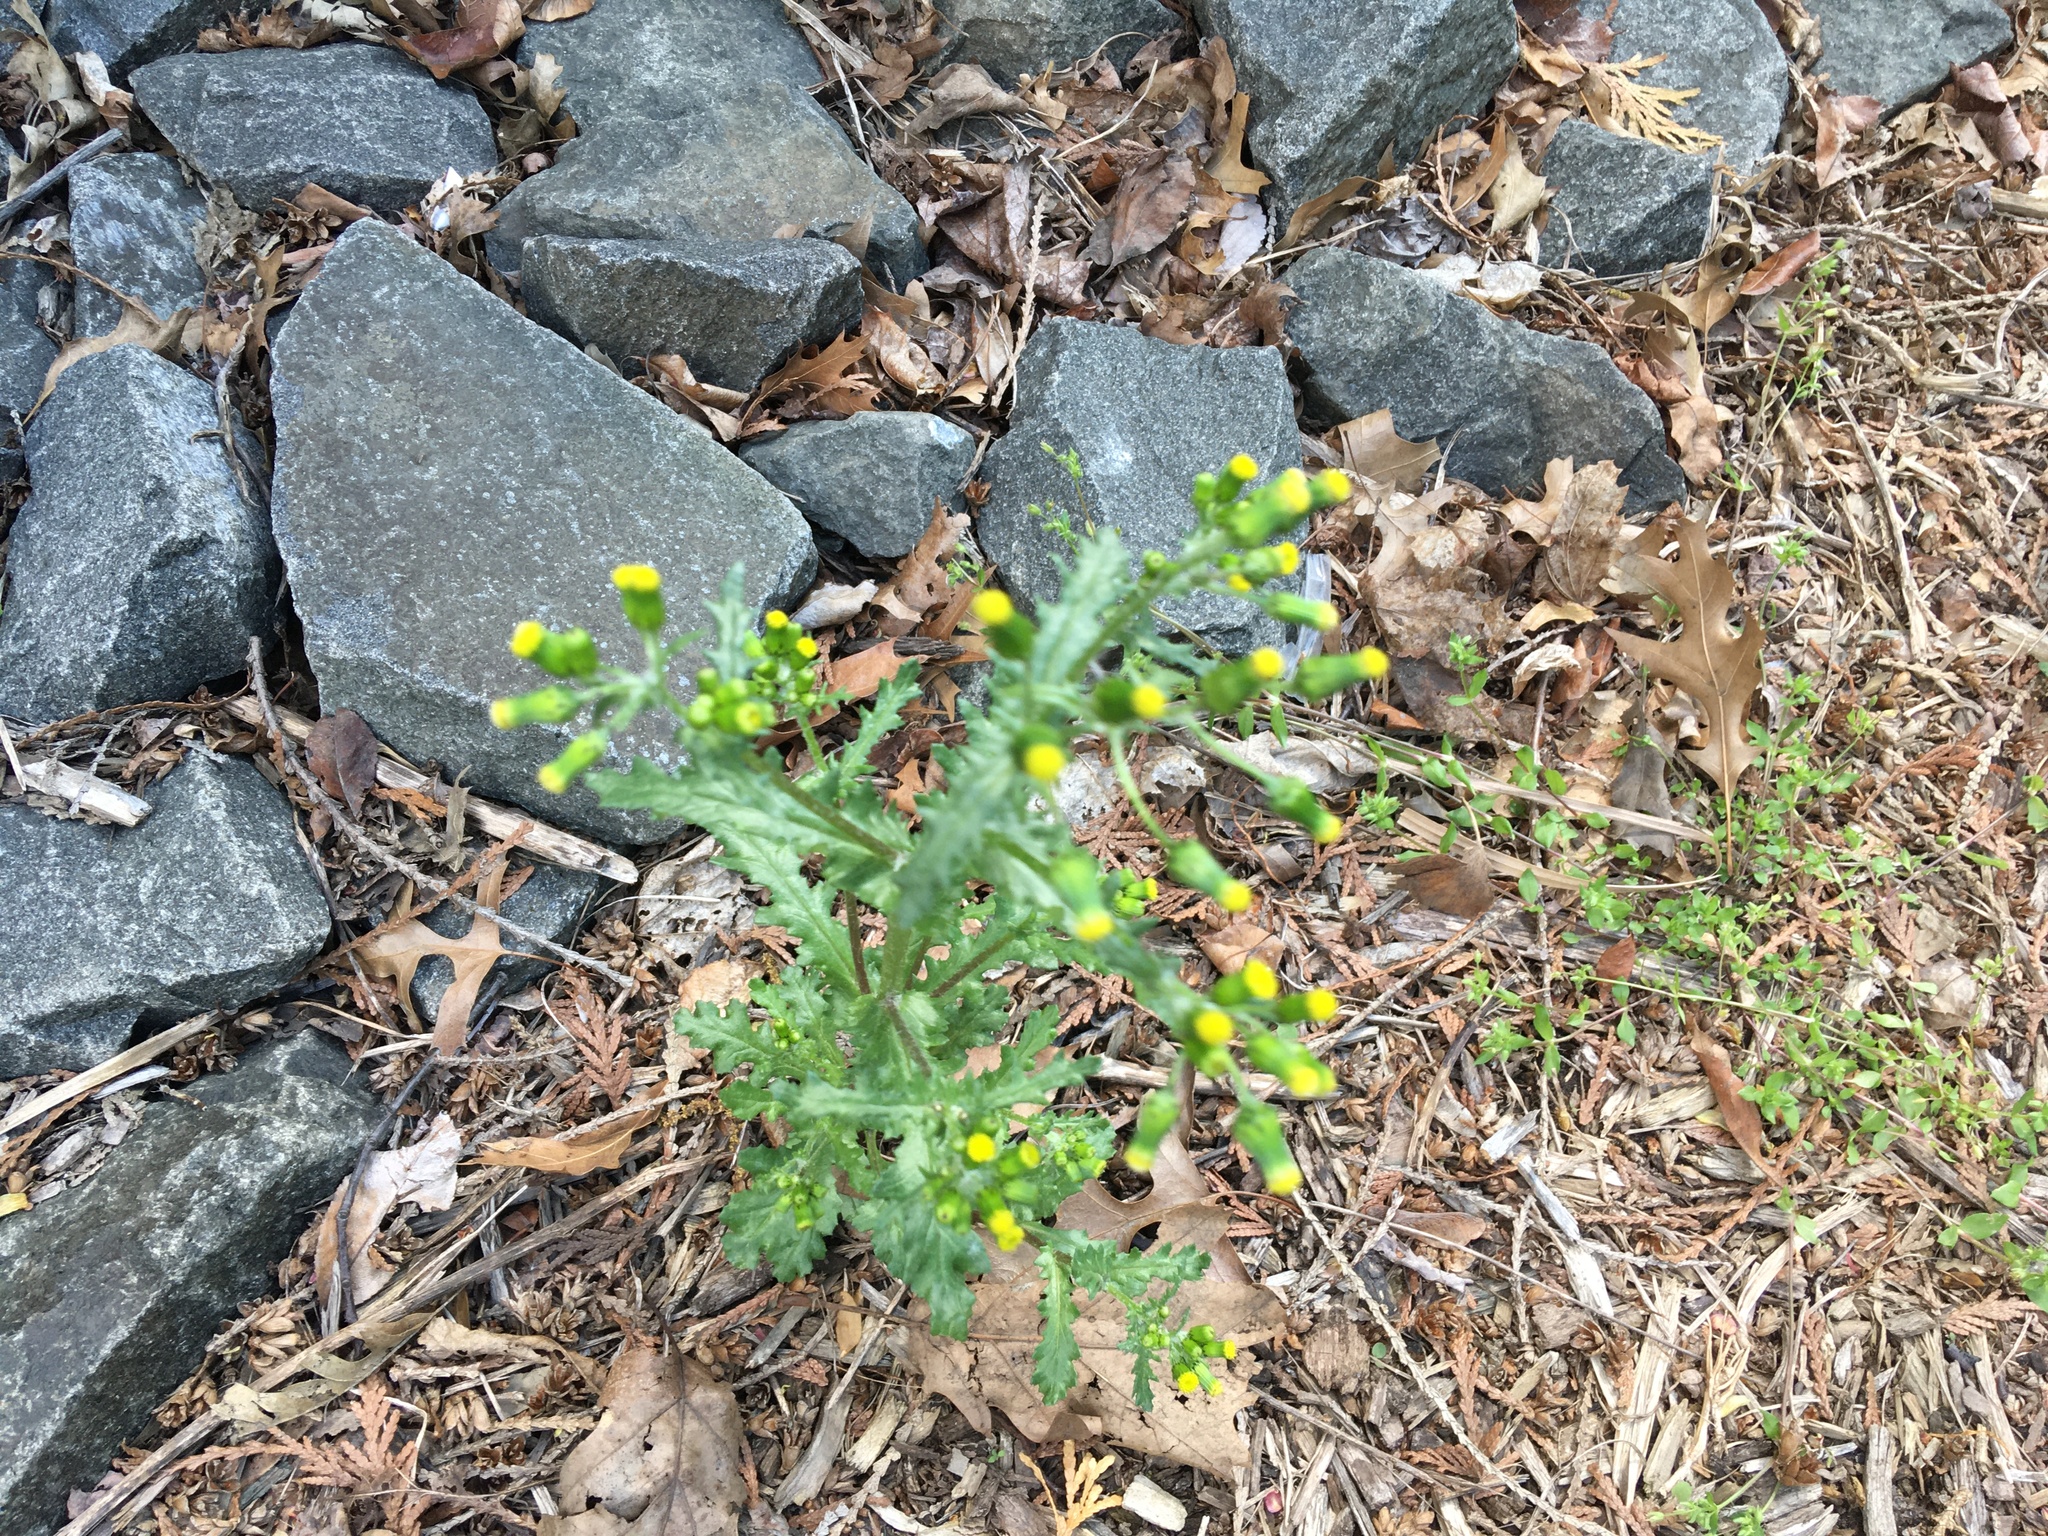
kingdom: Plantae
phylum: Tracheophyta
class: Magnoliopsida
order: Asterales
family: Asteraceae
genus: Senecio
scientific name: Senecio vulgaris
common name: Old-man-in-the-spring
